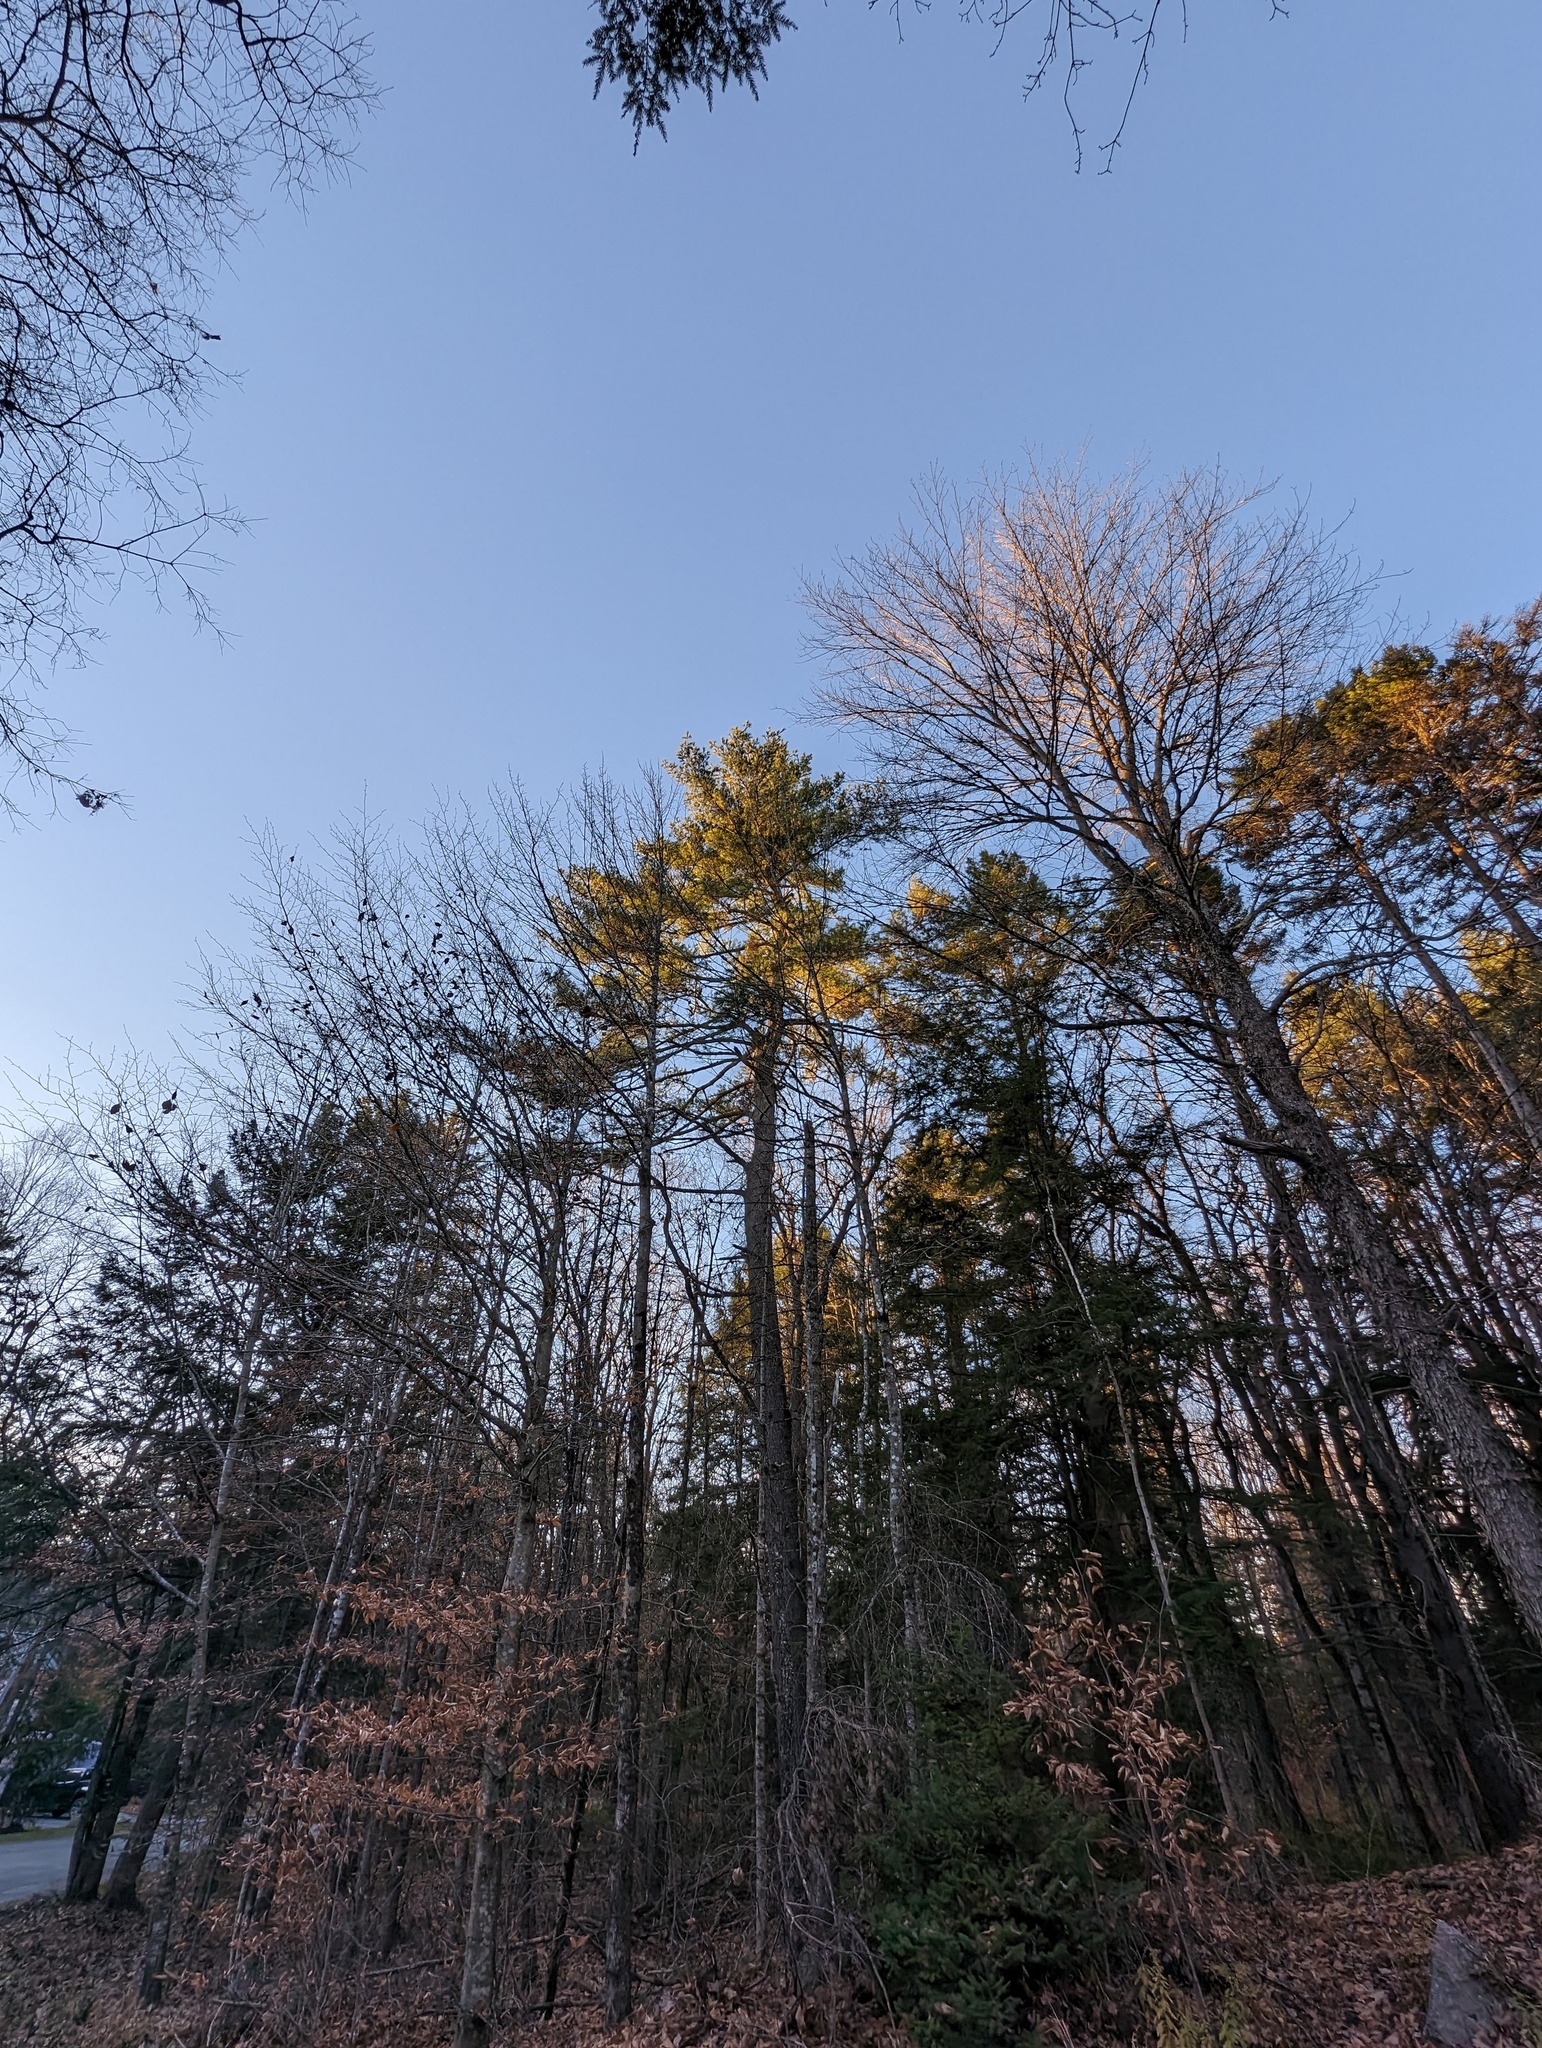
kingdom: Plantae
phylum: Tracheophyta
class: Pinopsida
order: Pinales
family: Pinaceae
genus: Pinus
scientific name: Pinus strobus
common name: Weymouth pine
